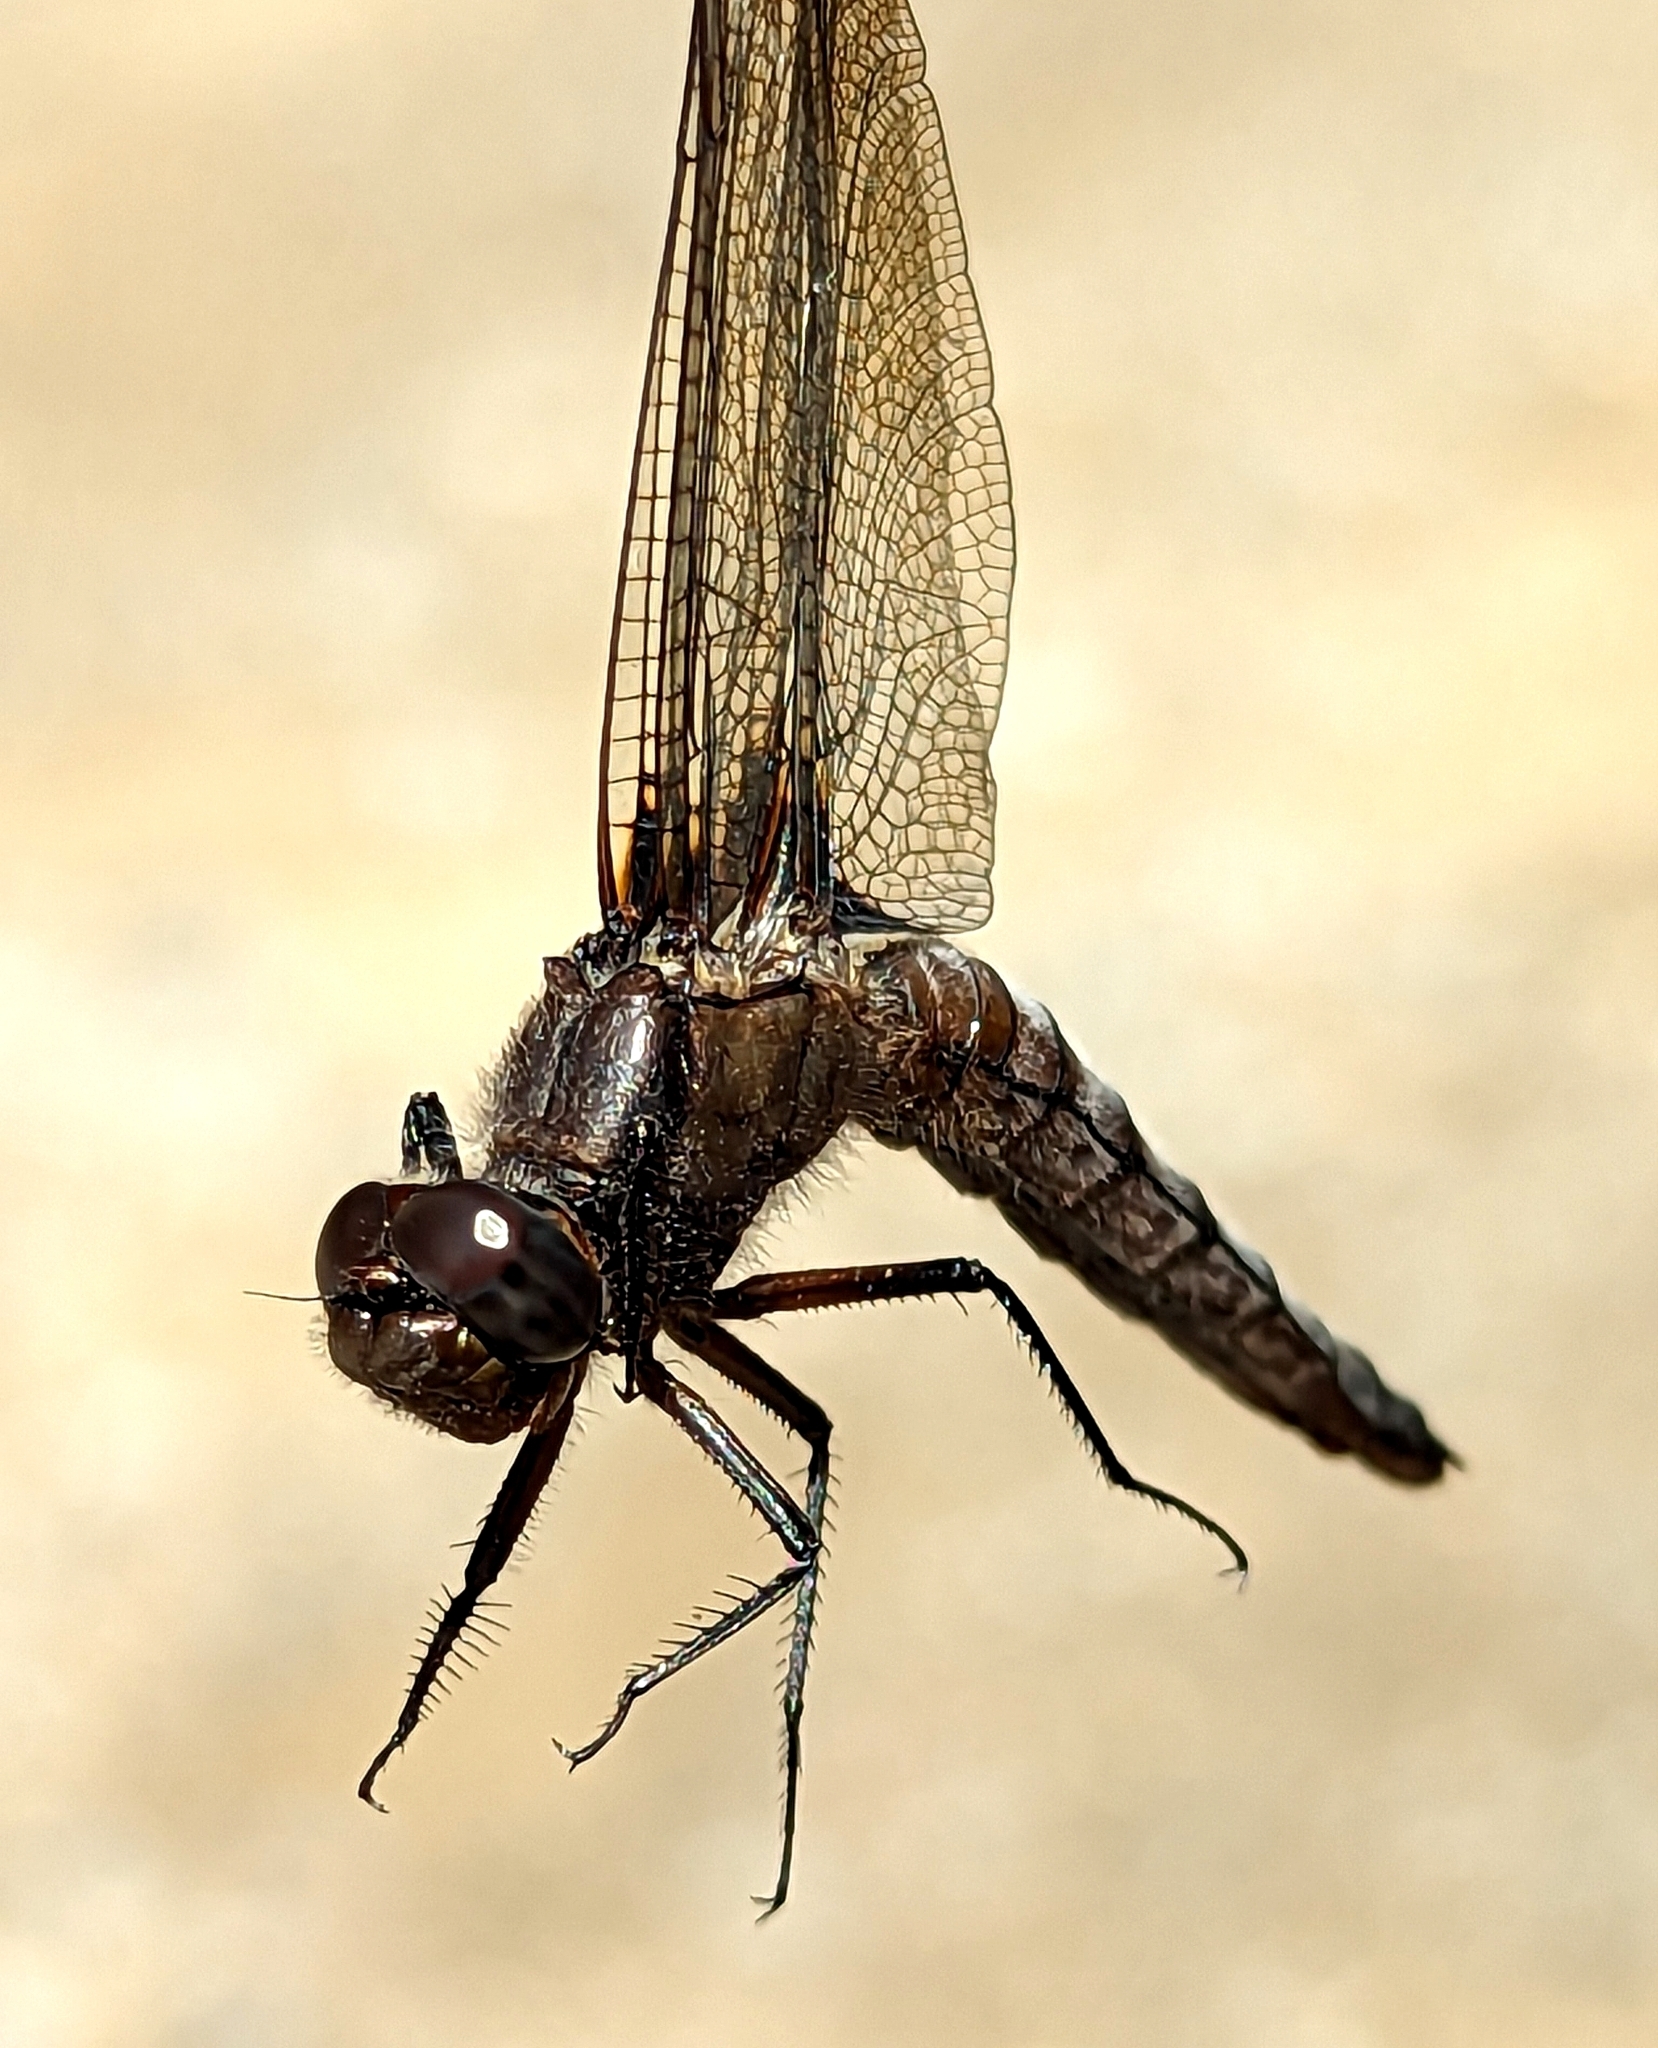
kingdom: Animalia
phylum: Arthropoda
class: Insecta
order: Odonata
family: Libellulidae
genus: Ladona
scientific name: Ladona julia
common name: Chalk-fronted corporal
